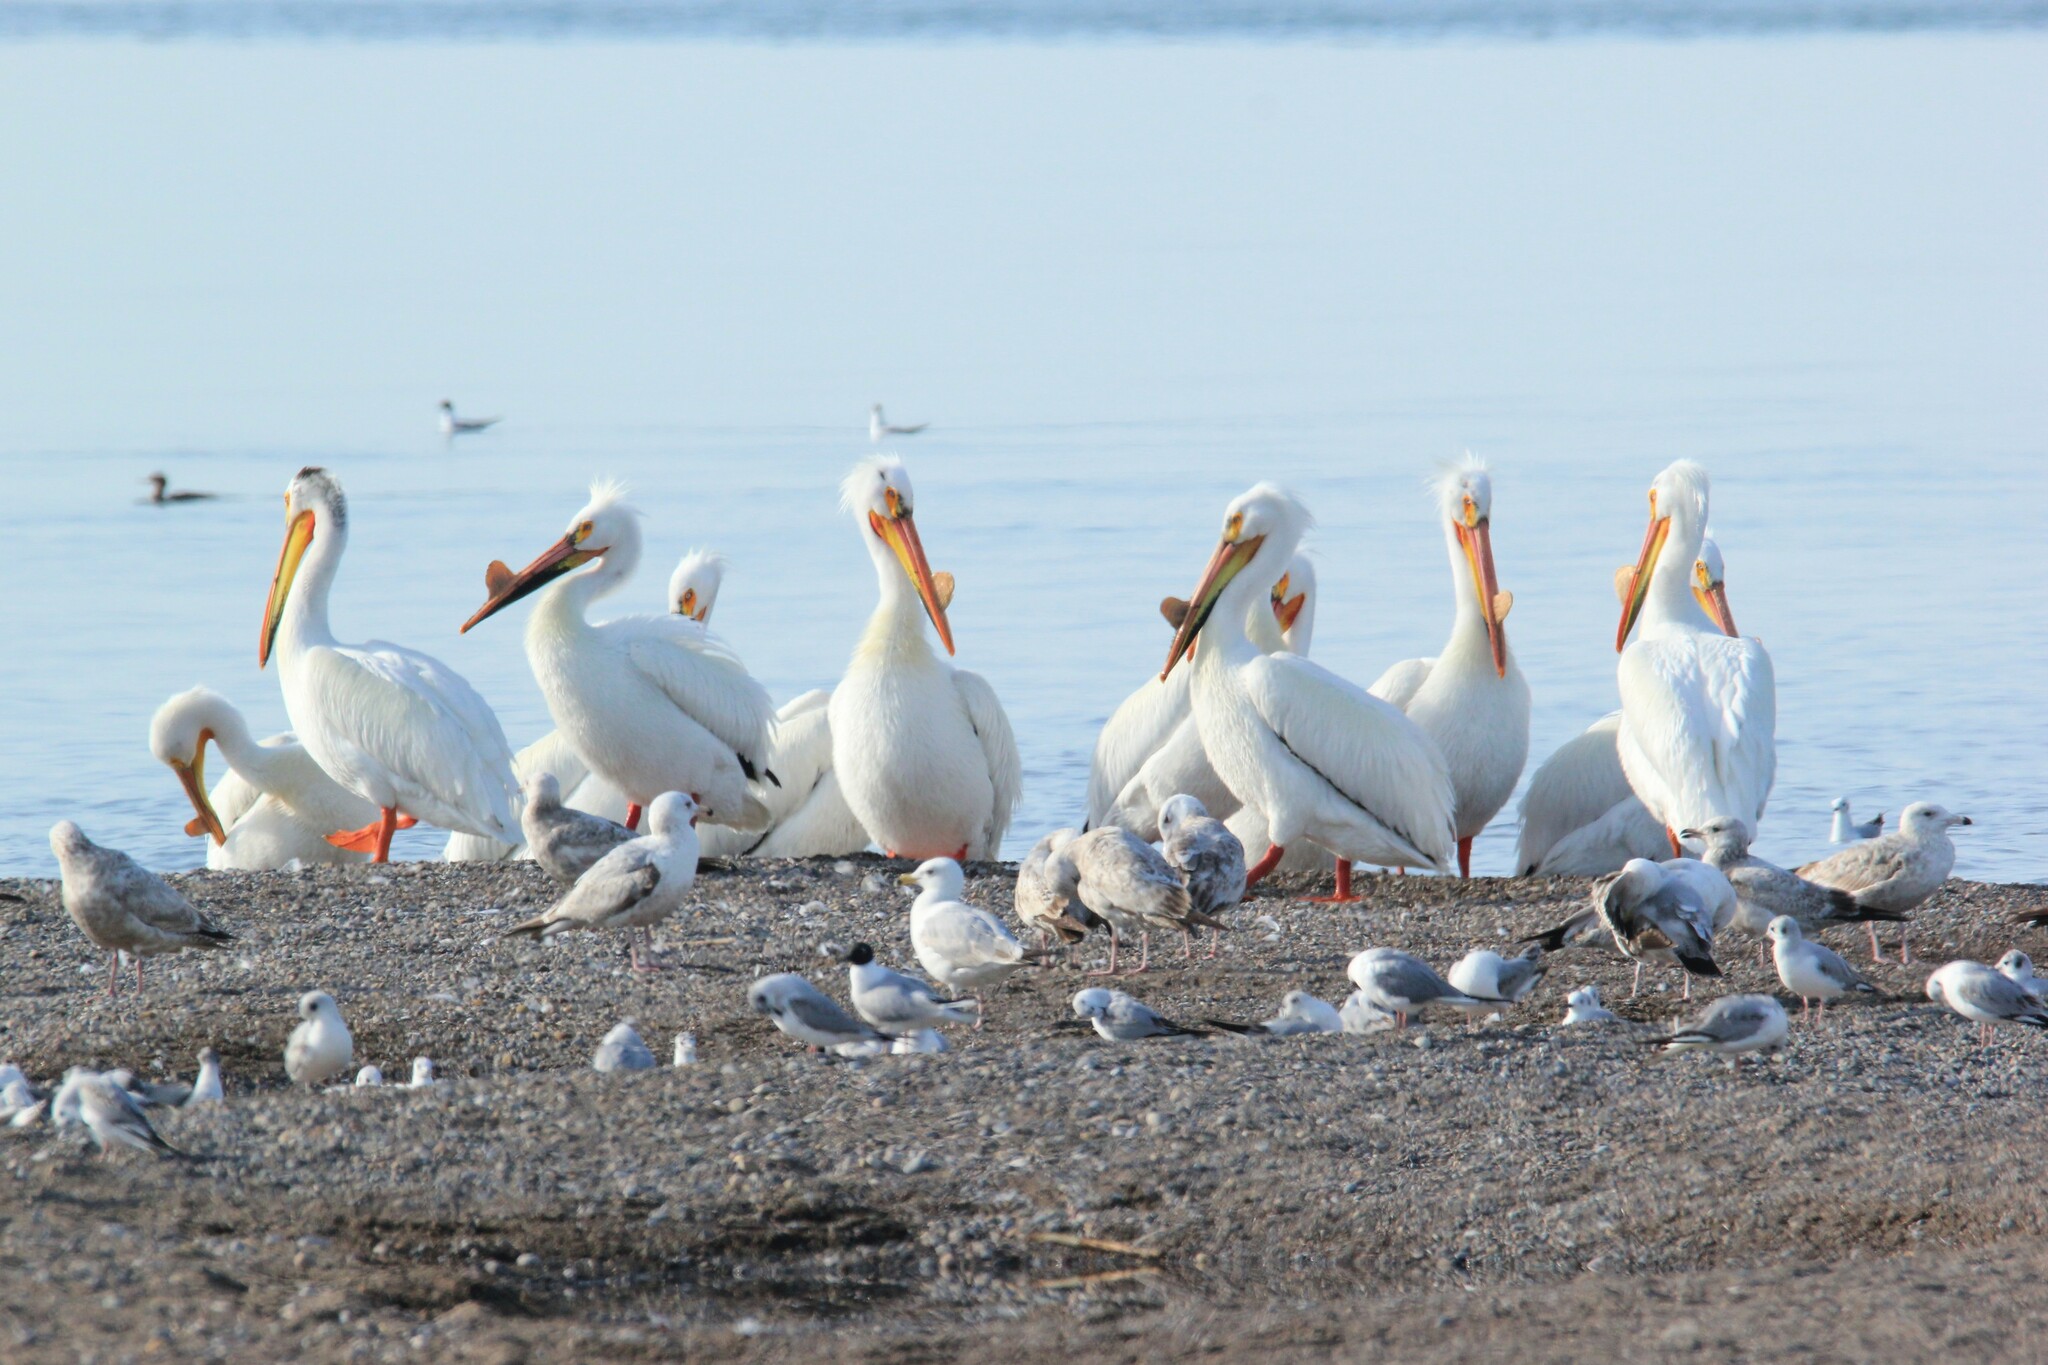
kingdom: Animalia
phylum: Chordata
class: Aves
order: Pelecaniformes
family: Pelecanidae
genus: Pelecanus
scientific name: Pelecanus erythrorhynchos
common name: American white pelican
